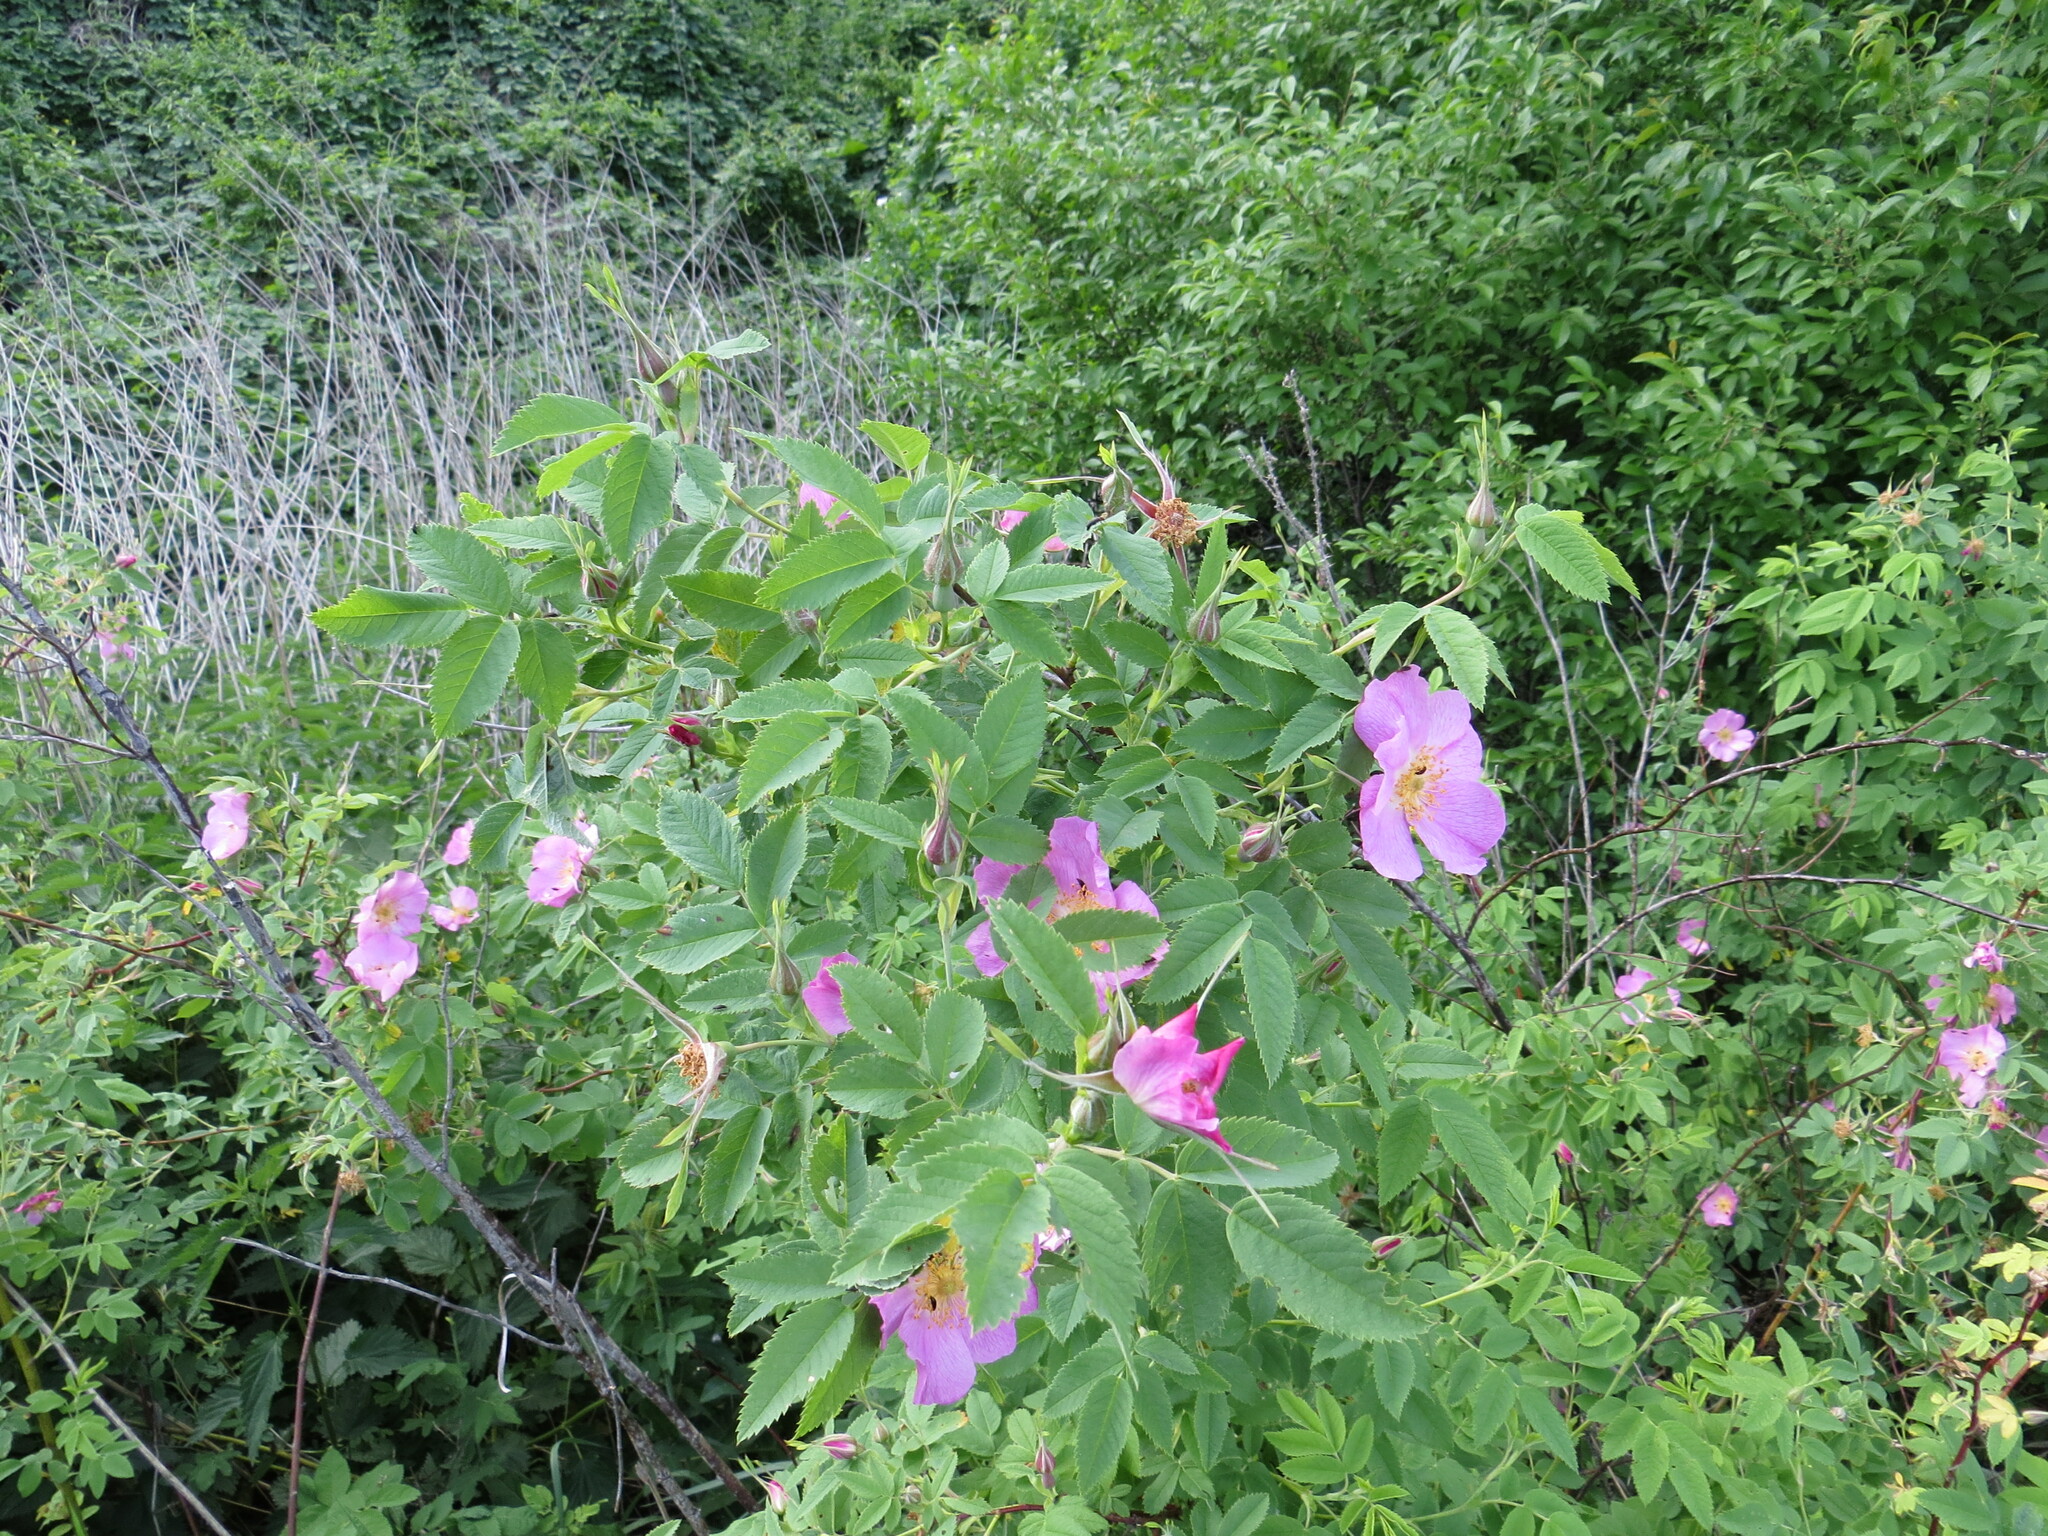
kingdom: Plantae
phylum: Tracheophyta
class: Magnoliopsida
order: Rosales
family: Rosaceae
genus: Rosa
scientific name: Rosa majalis
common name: Cinnamon rose
